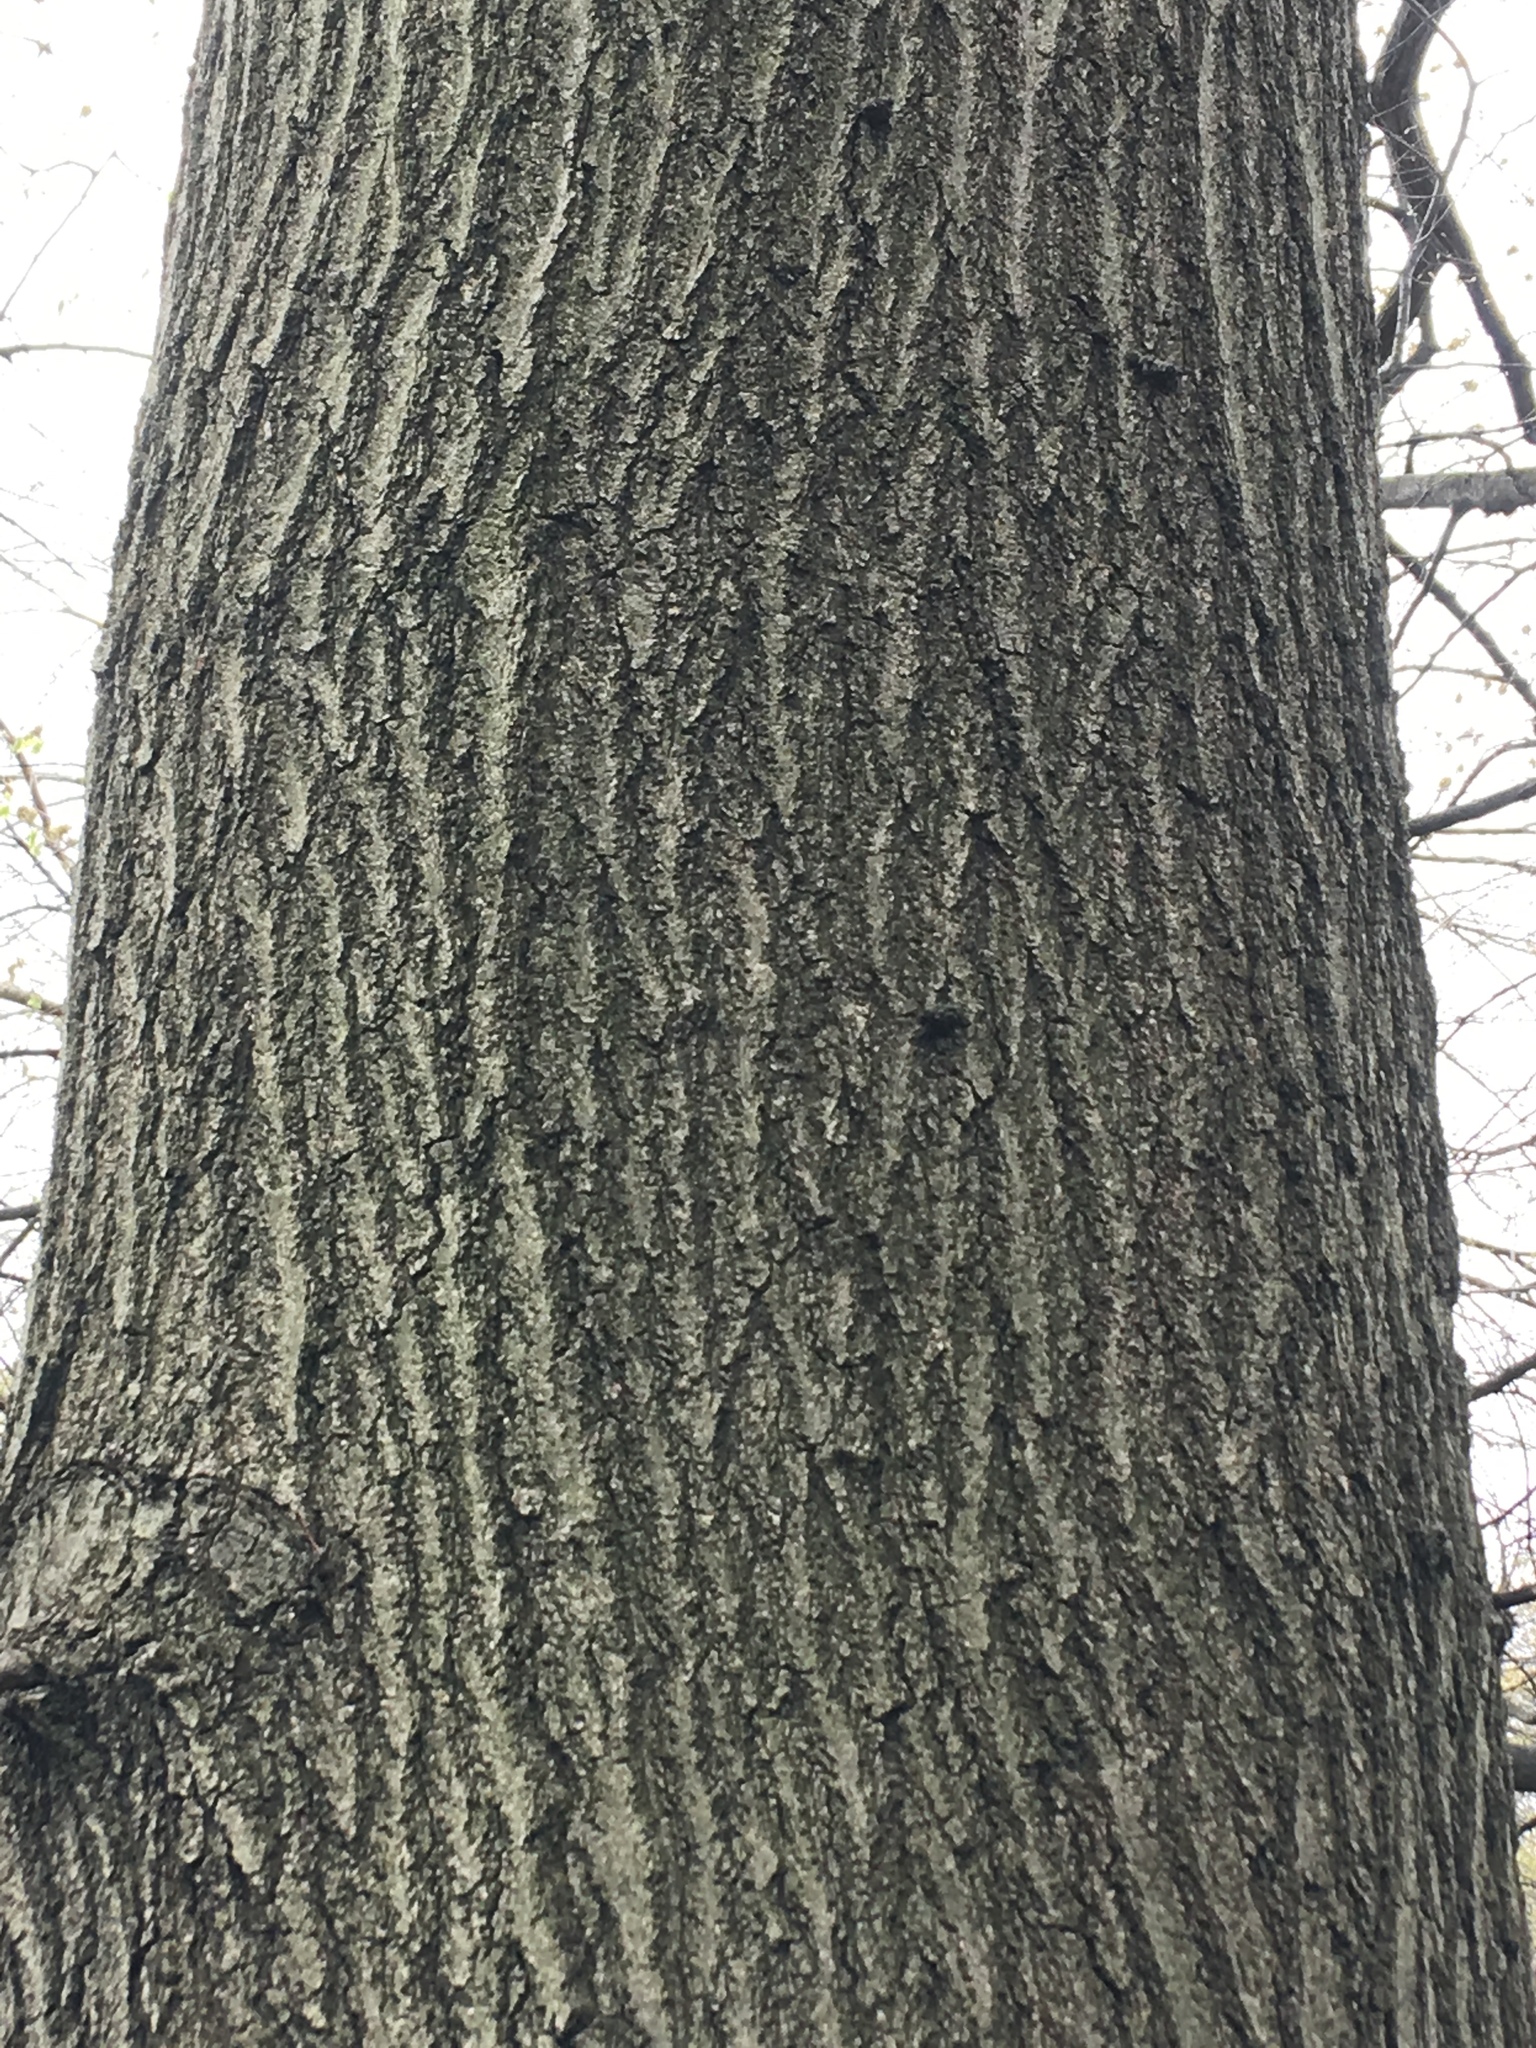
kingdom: Plantae
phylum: Tracheophyta
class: Magnoliopsida
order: Fagales
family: Fagaceae
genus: Quercus
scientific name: Quercus rubra
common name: Red oak
